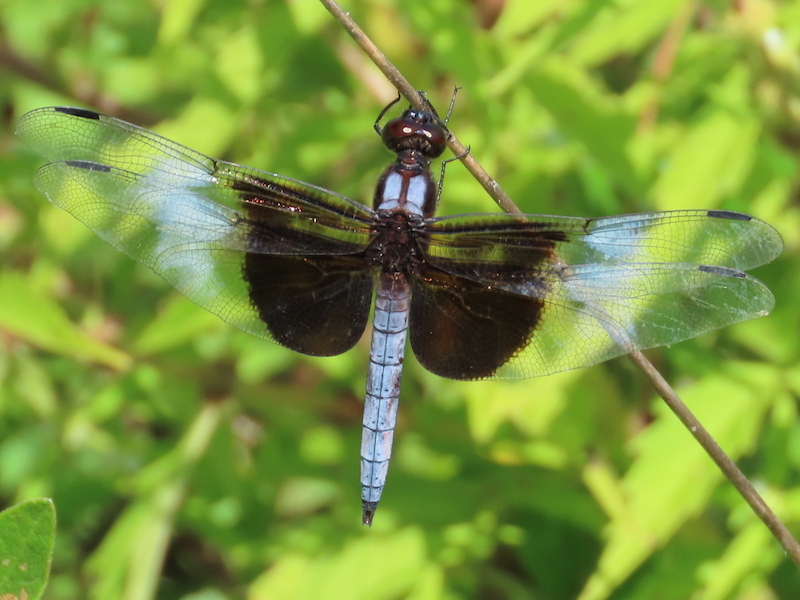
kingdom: Animalia
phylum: Arthropoda
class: Insecta
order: Odonata
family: Libellulidae
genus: Libellula
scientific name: Libellula luctuosa
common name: Widow skimmer
